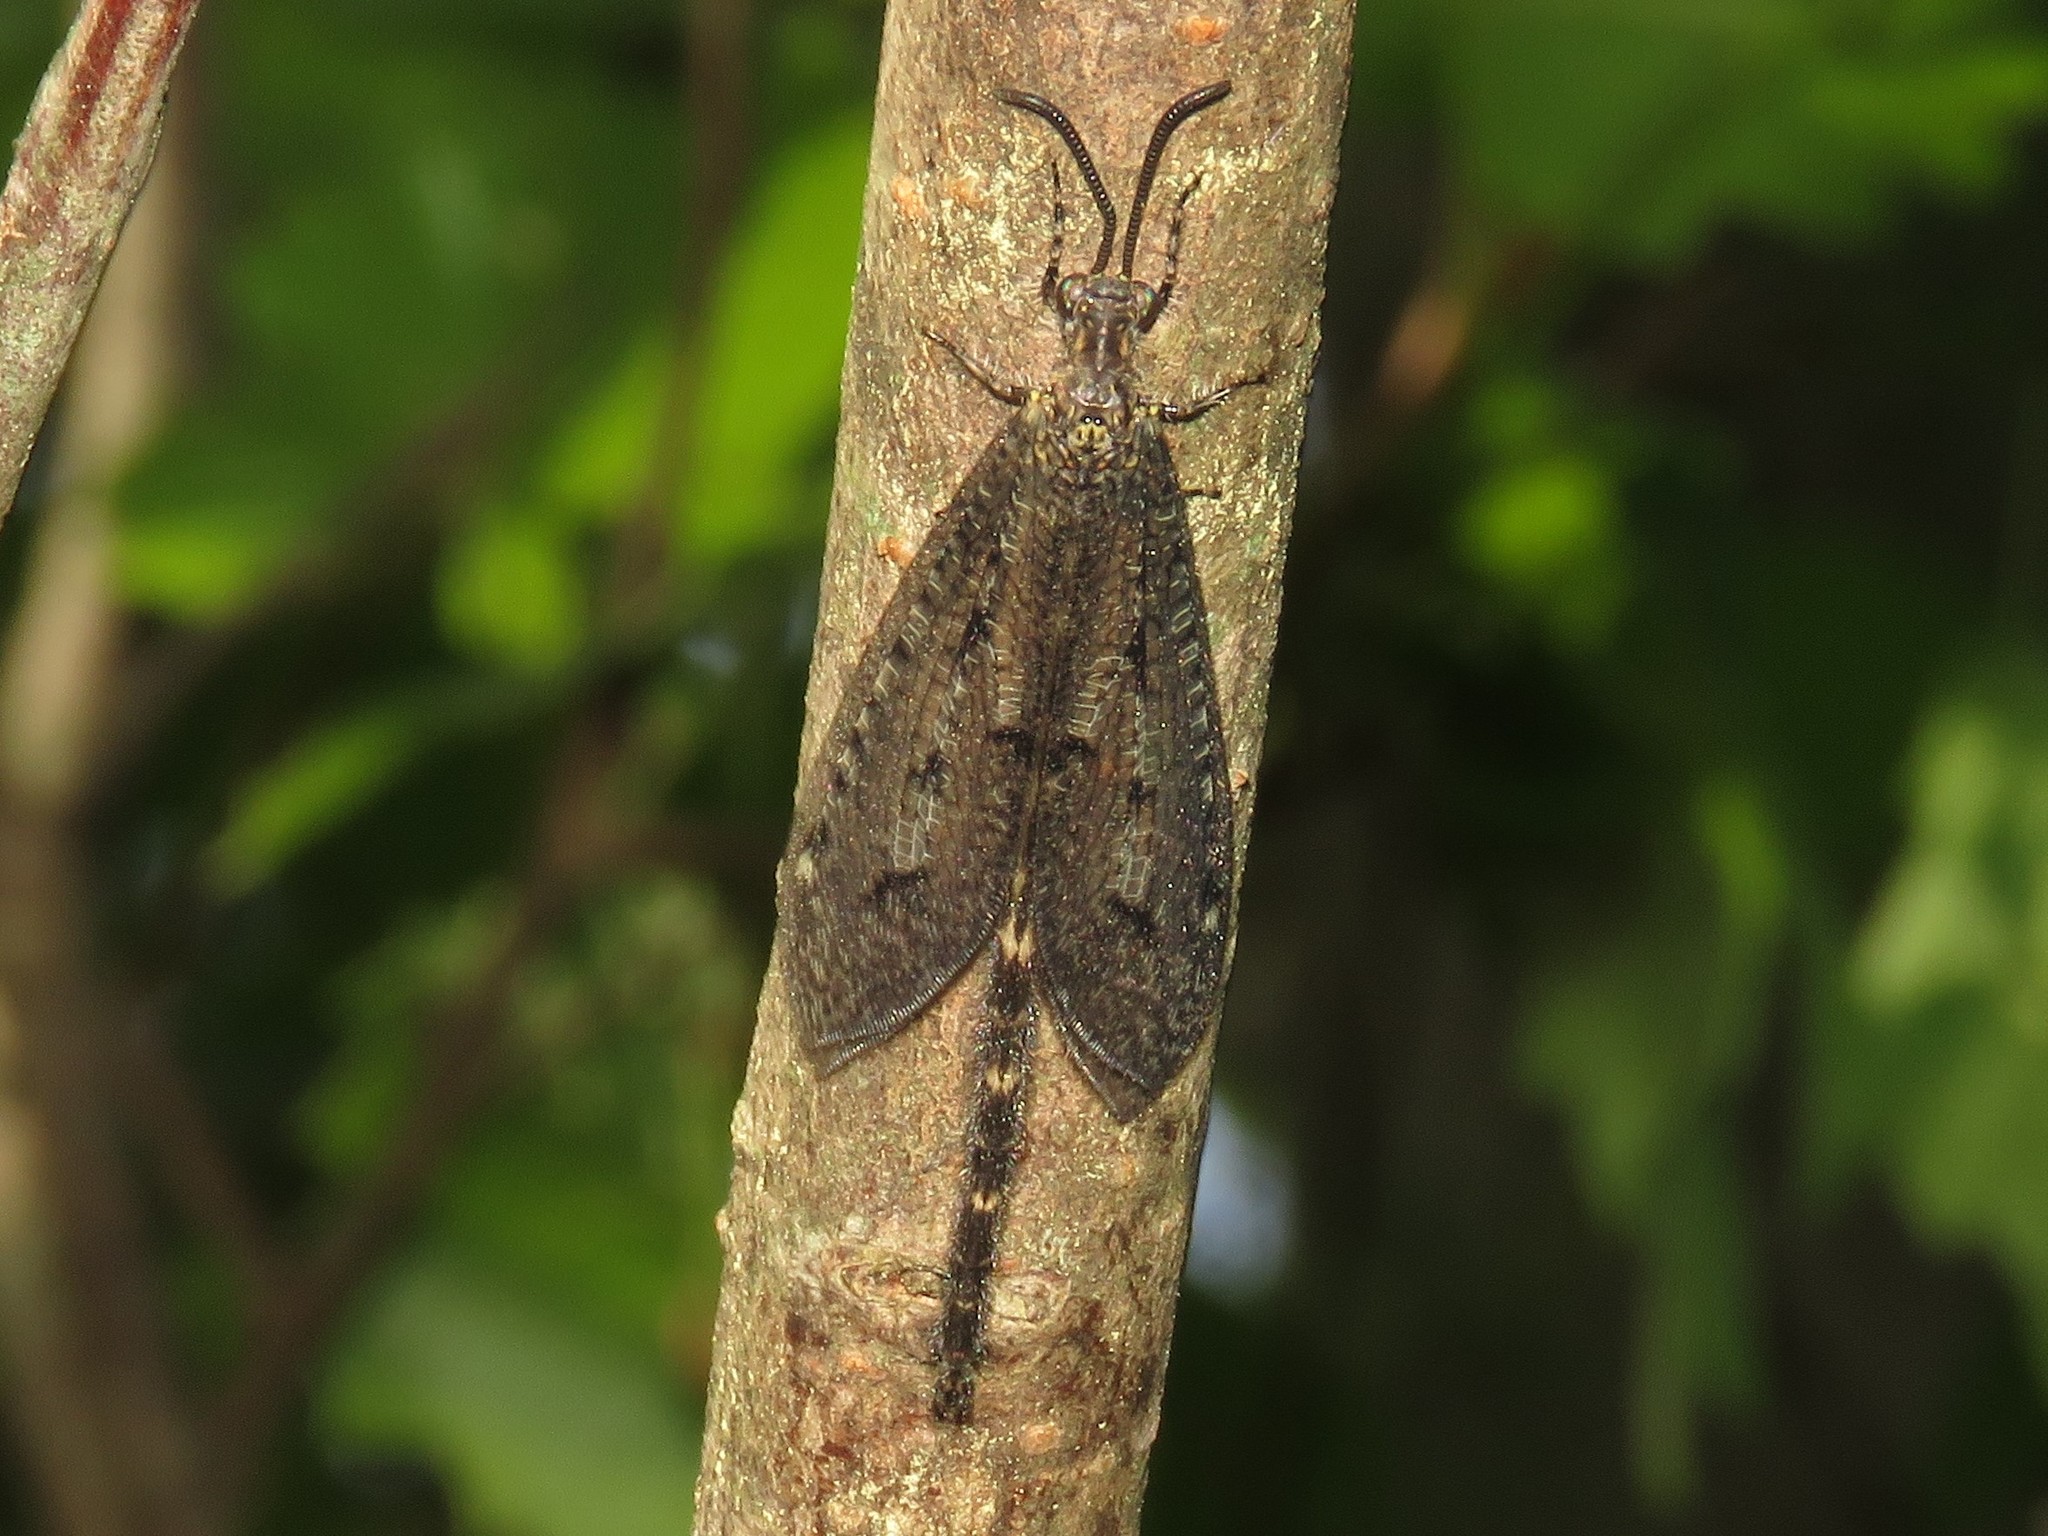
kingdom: Animalia
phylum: Arthropoda
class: Insecta
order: Neuroptera
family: Myrmeleontidae
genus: Brachynemurus
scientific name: Brachynemurus nebulosus
